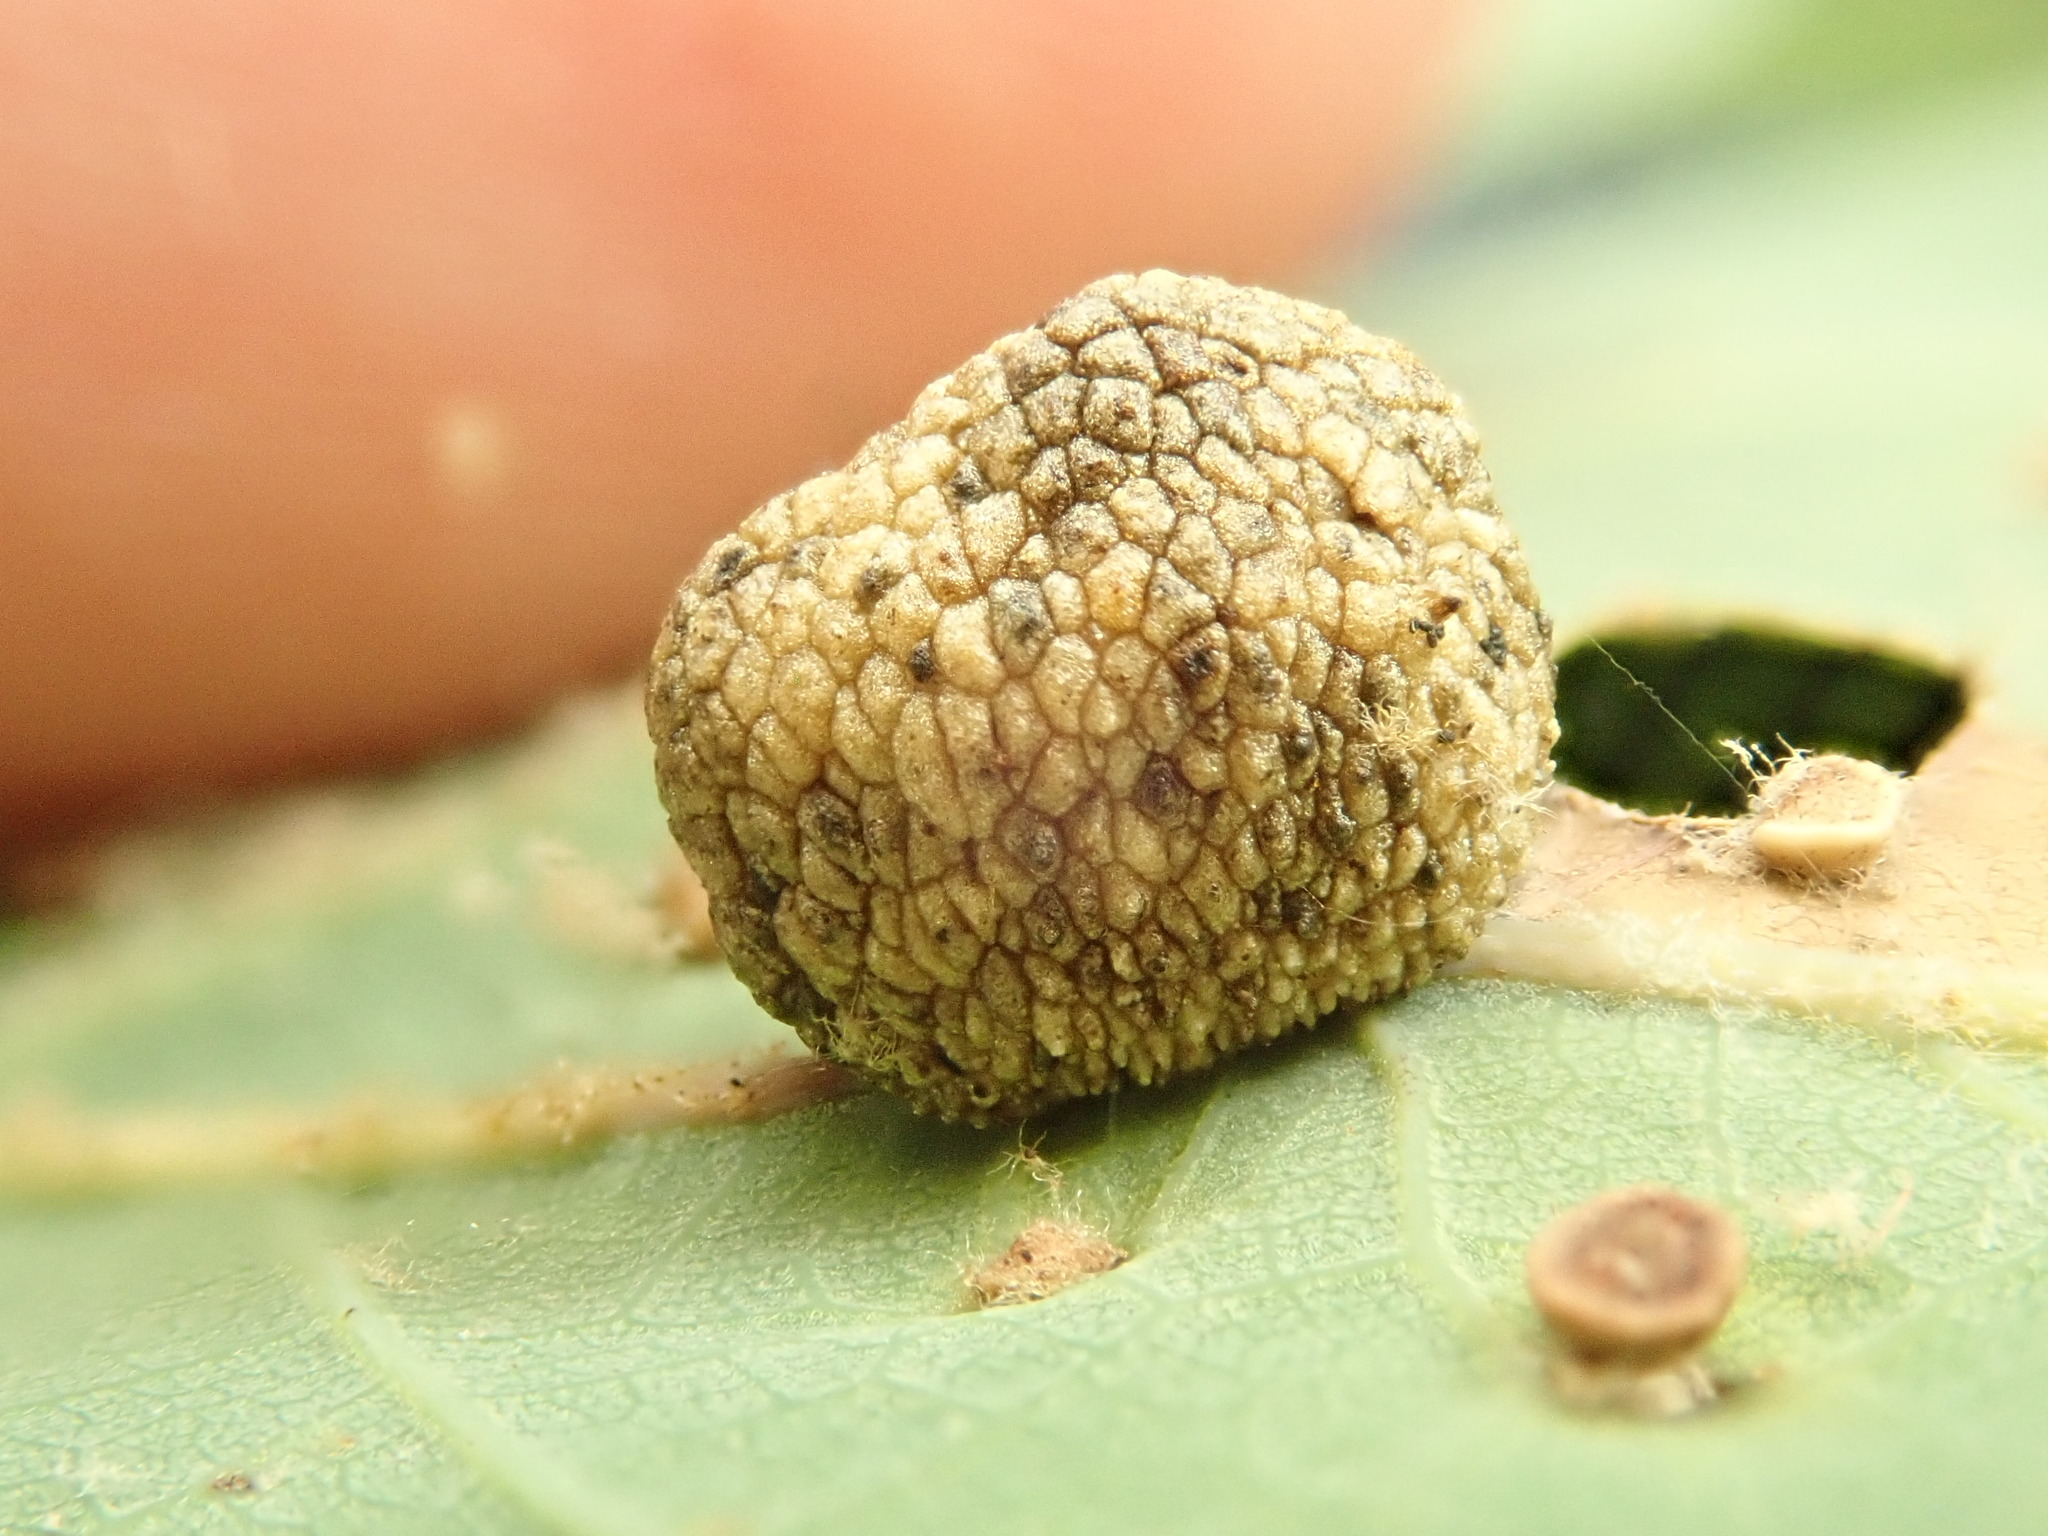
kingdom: Animalia
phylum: Arthropoda
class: Insecta
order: Hymenoptera
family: Cynipidae
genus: Acraspis
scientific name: Acraspis
